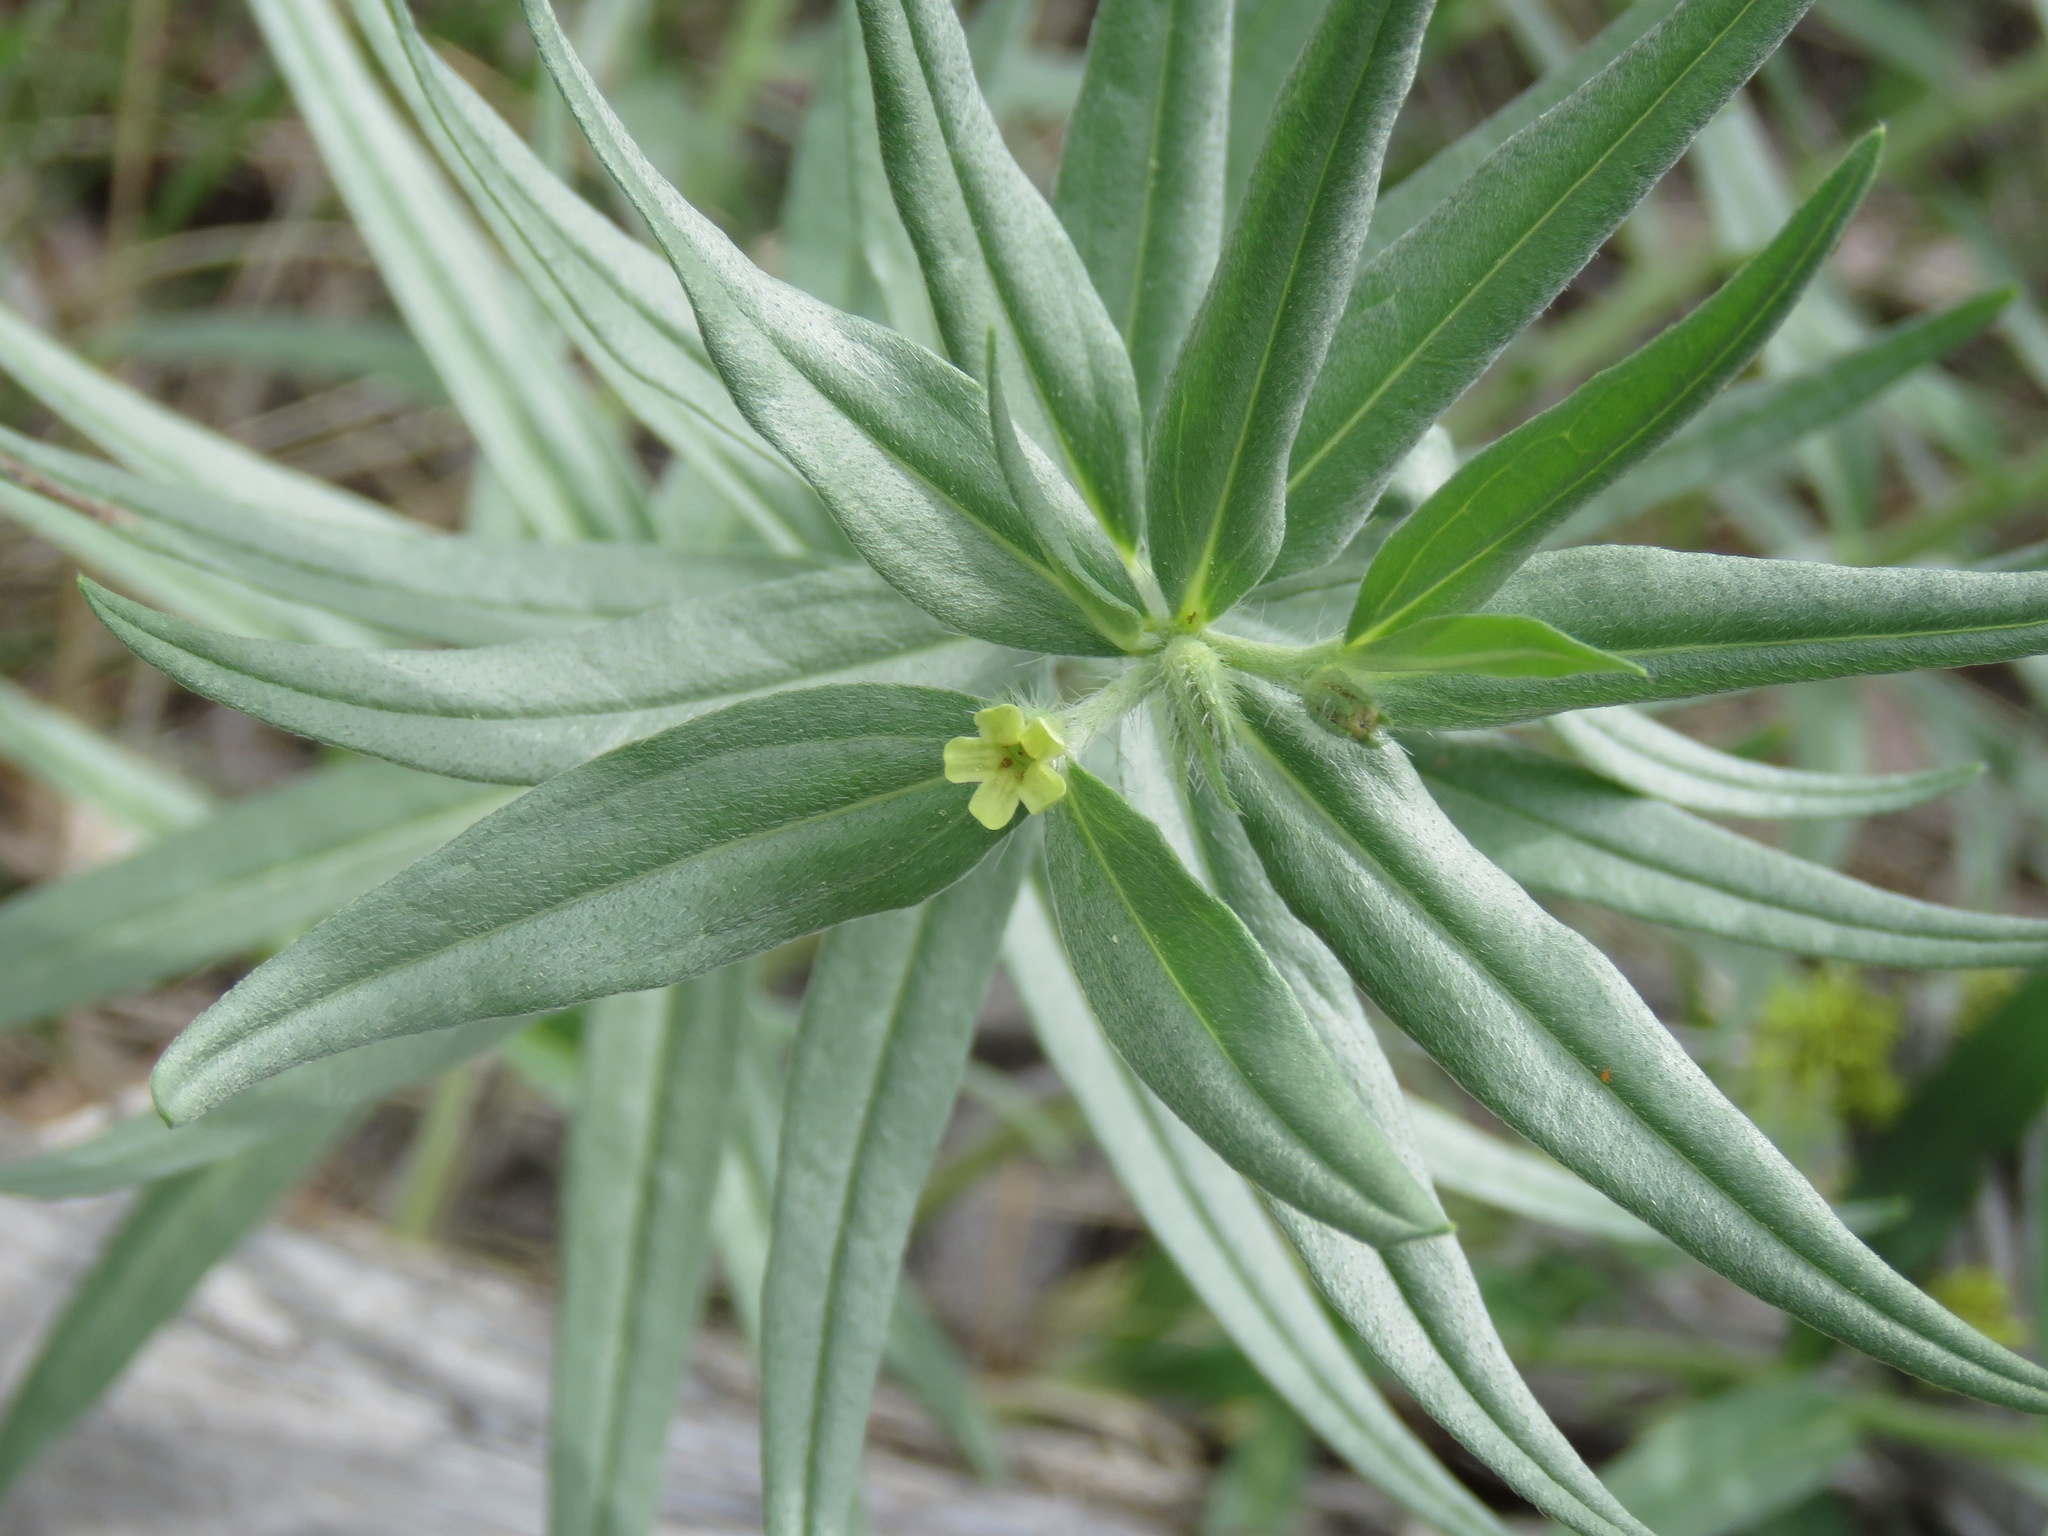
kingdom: Plantae
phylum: Tracheophyta
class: Magnoliopsida
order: Boraginales
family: Boraginaceae
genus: Lithospermum
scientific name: Lithospermum ruderale
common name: Western gromwell
